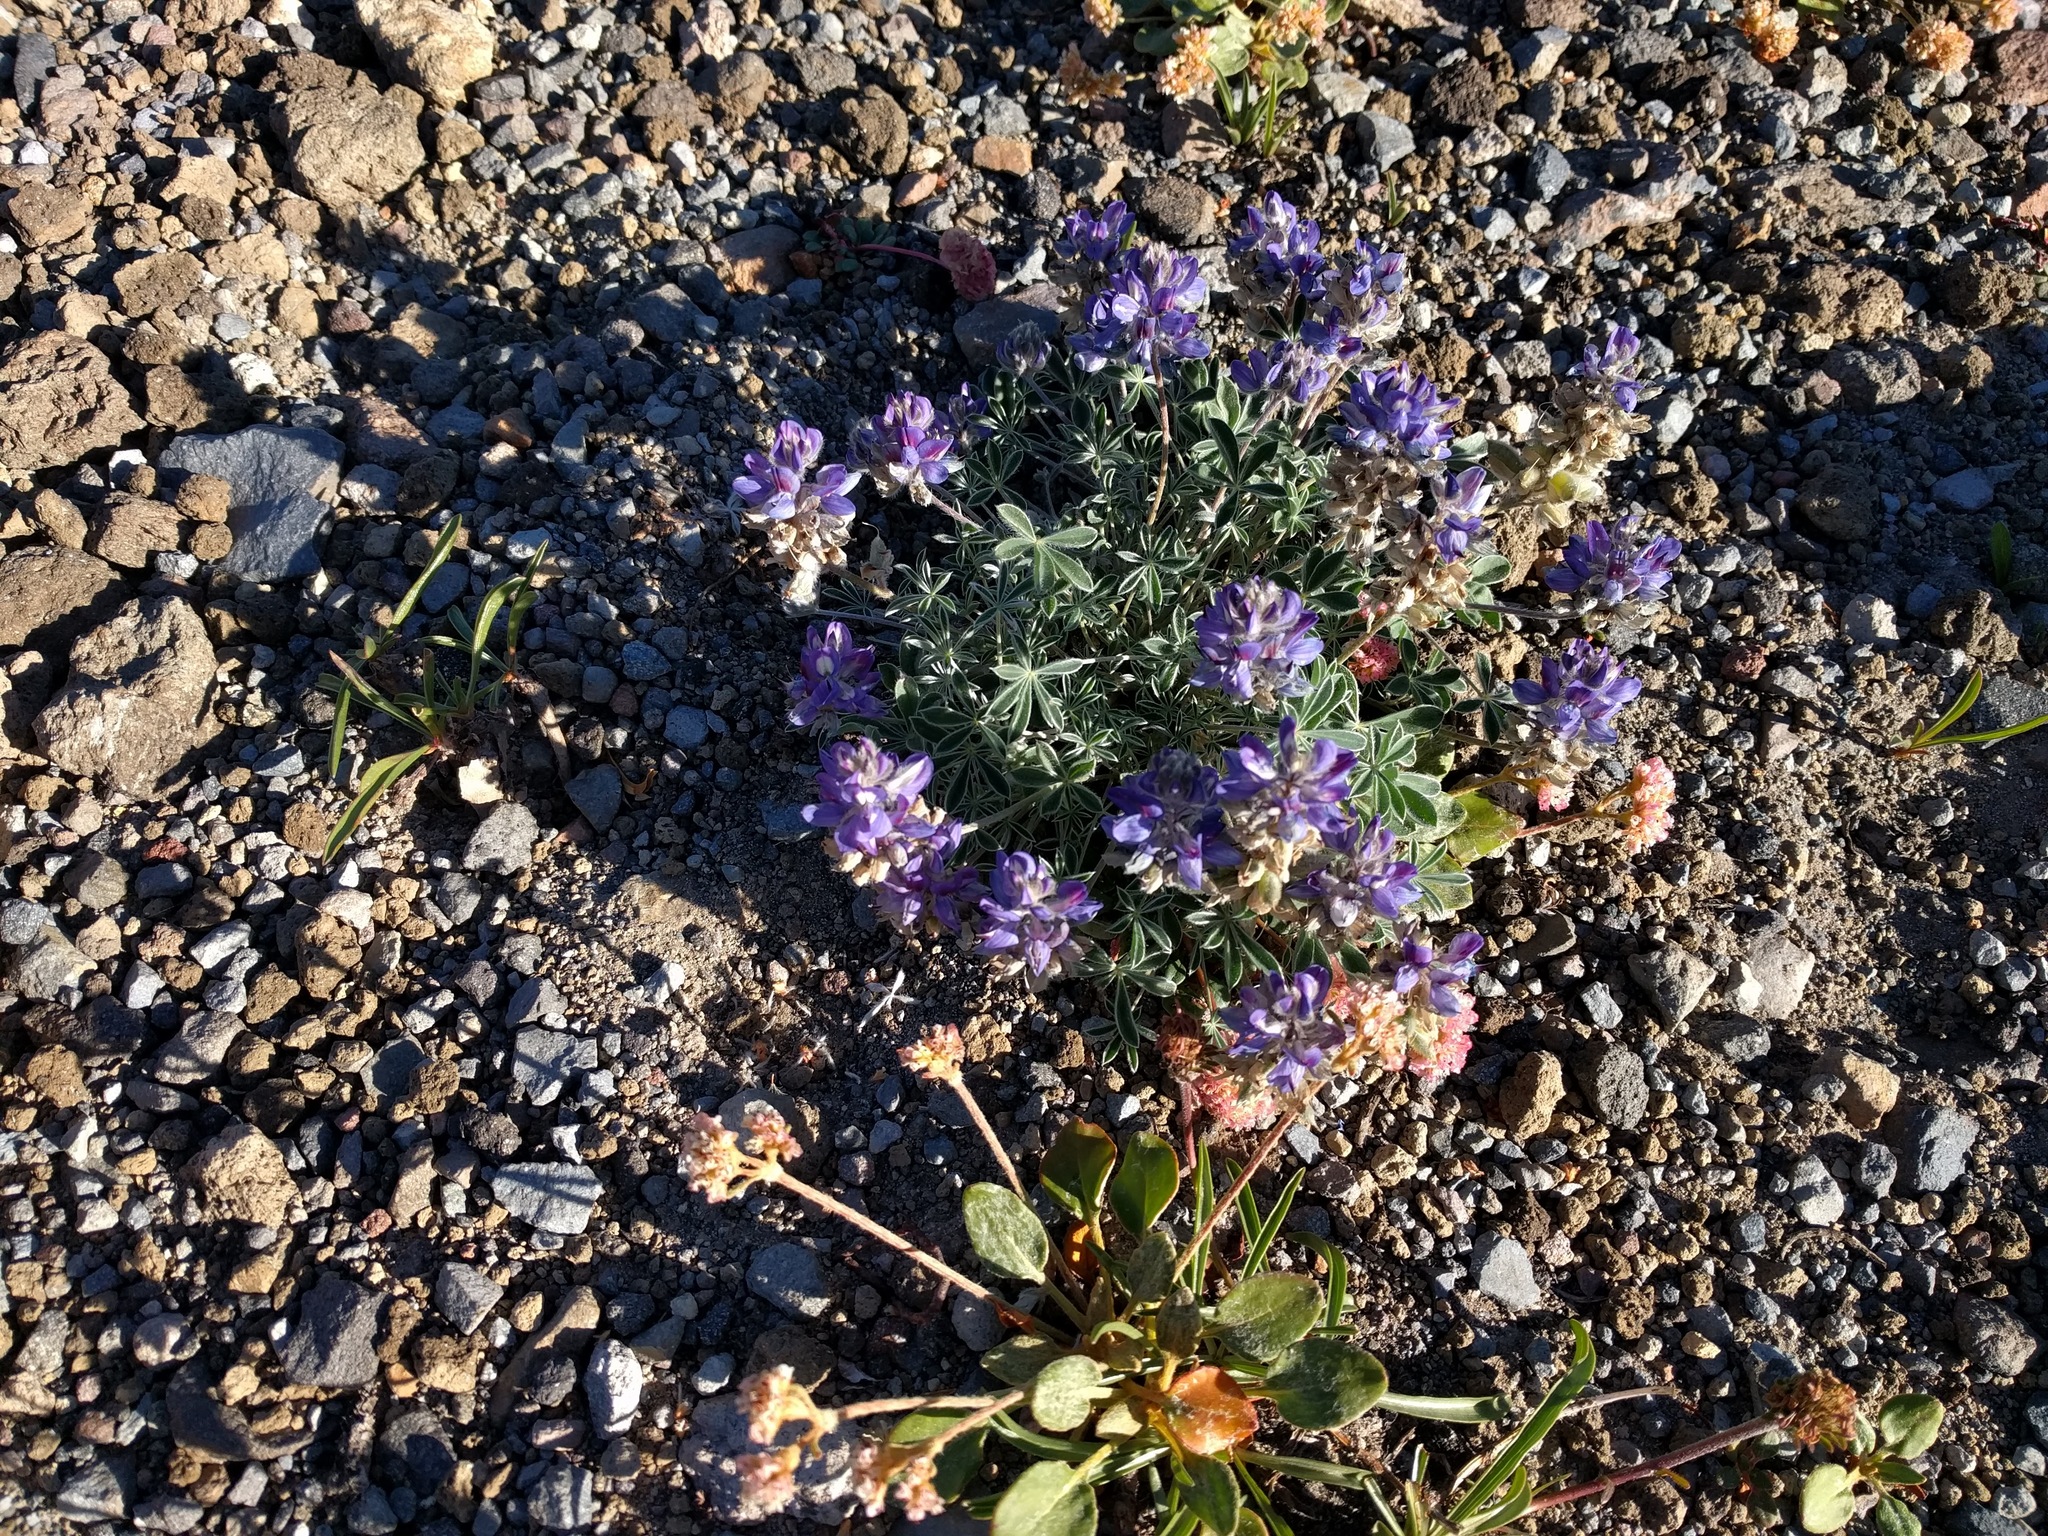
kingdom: Plantae
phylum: Tracheophyta
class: Magnoliopsida
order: Fabales
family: Fabaceae
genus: Lupinus
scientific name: Lupinus sellulus
